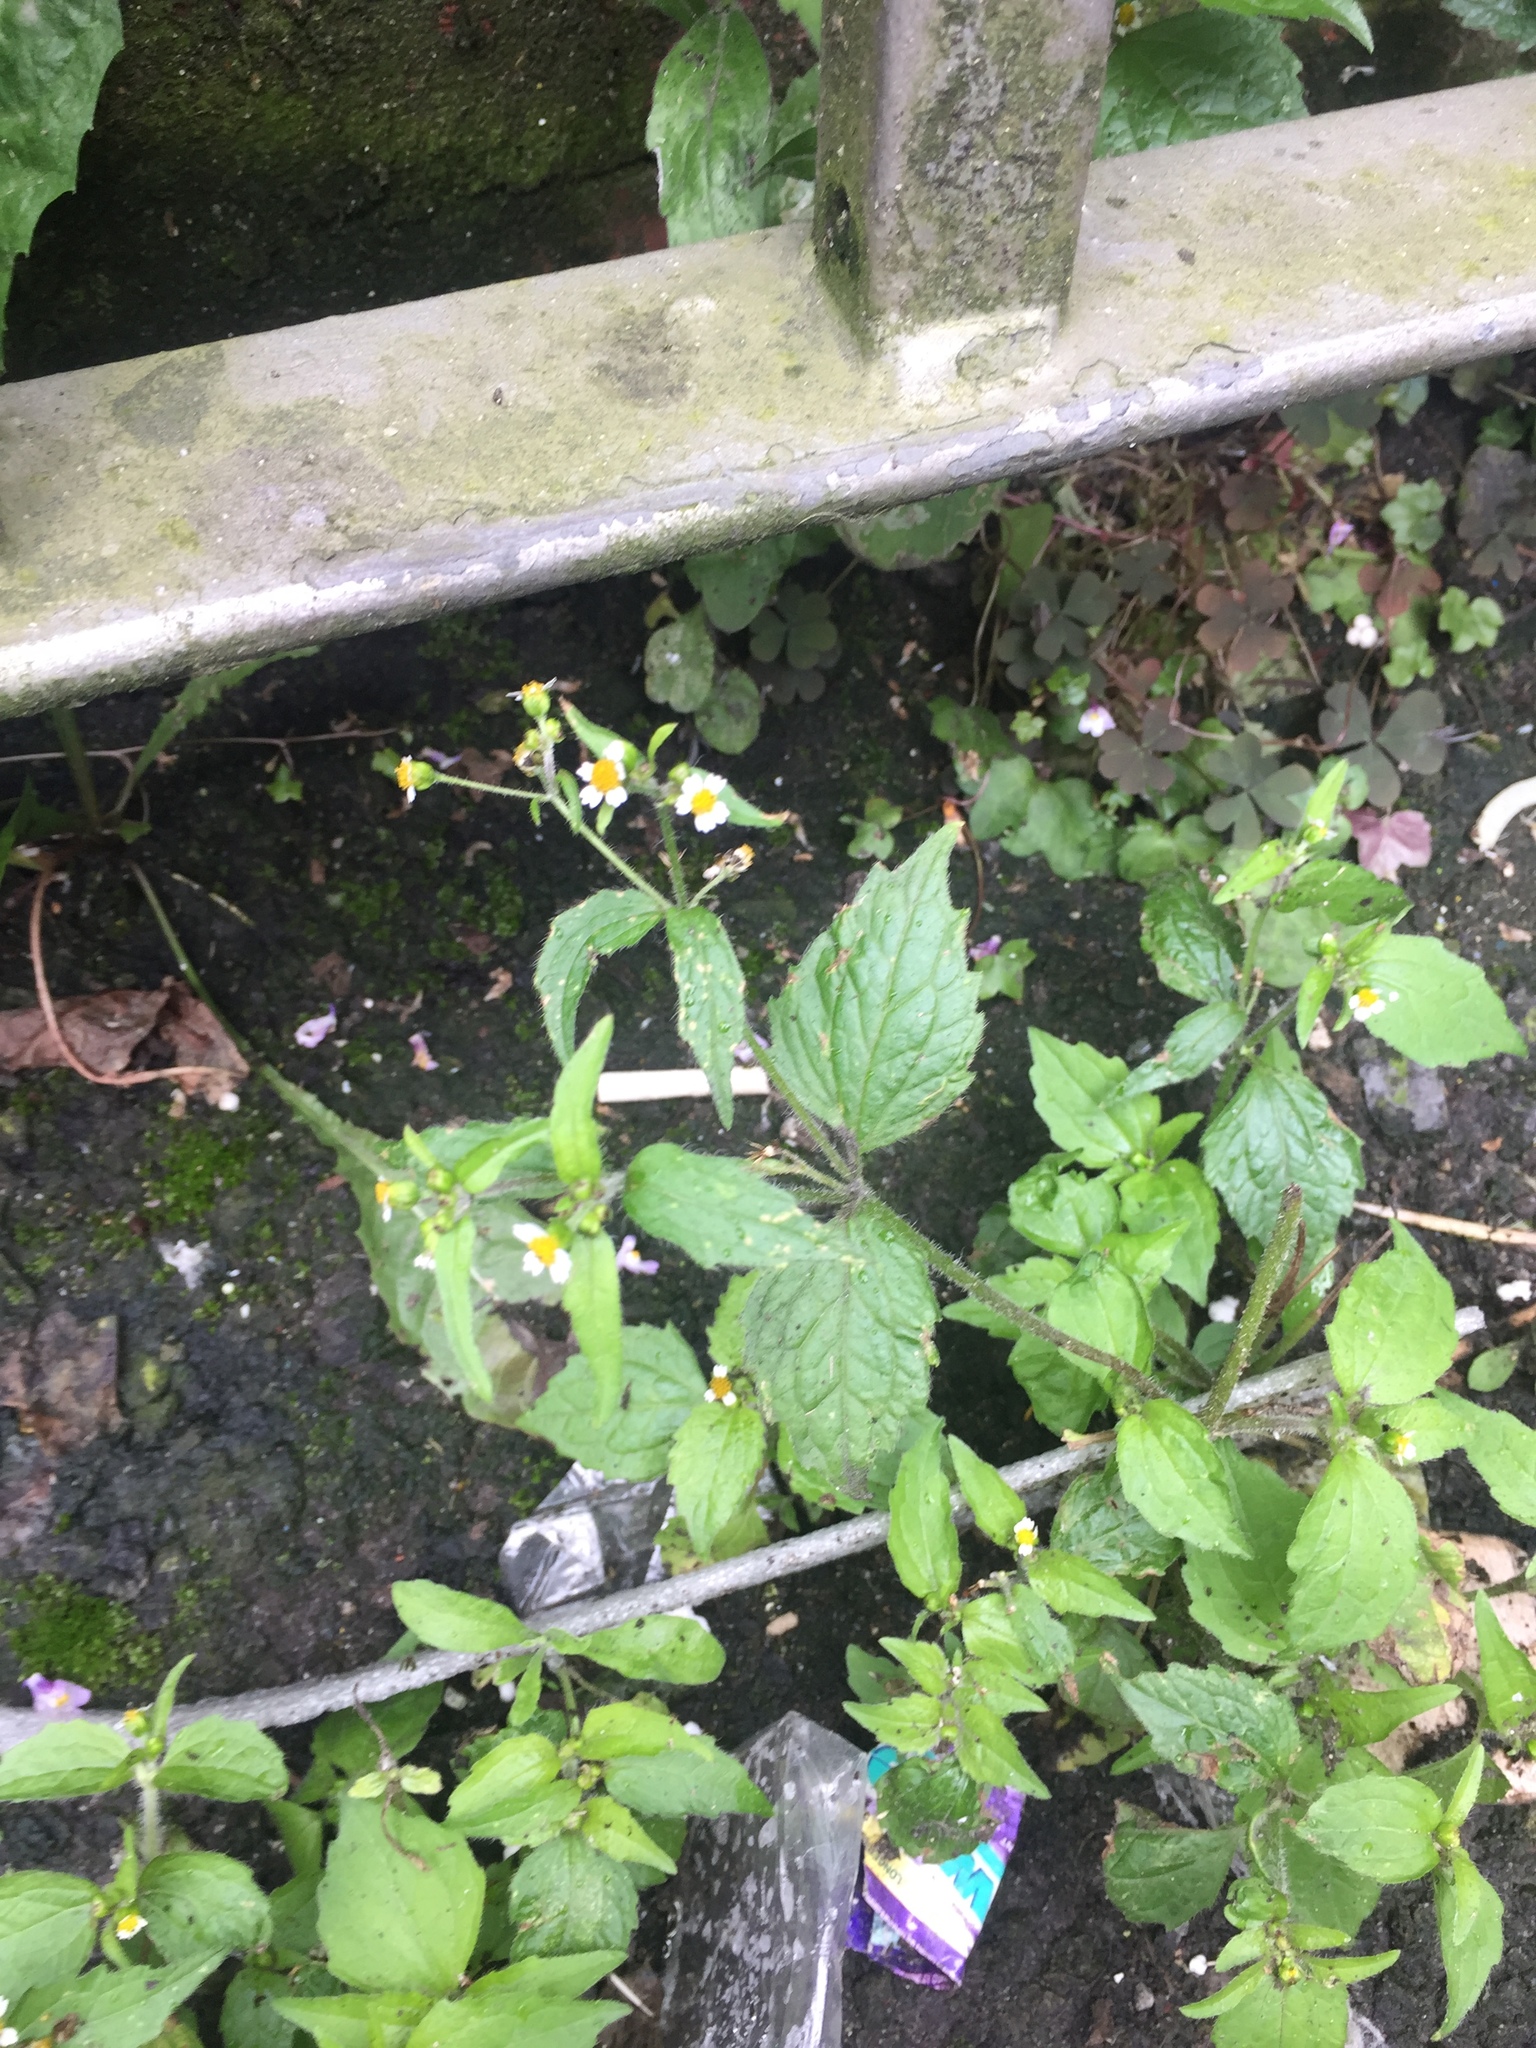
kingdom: Plantae
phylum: Tracheophyta
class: Magnoliopsida
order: Asterales
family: Asteraceae
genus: Galinsoga
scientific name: Galinsoga quadriradiata
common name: Shaggy soldier
